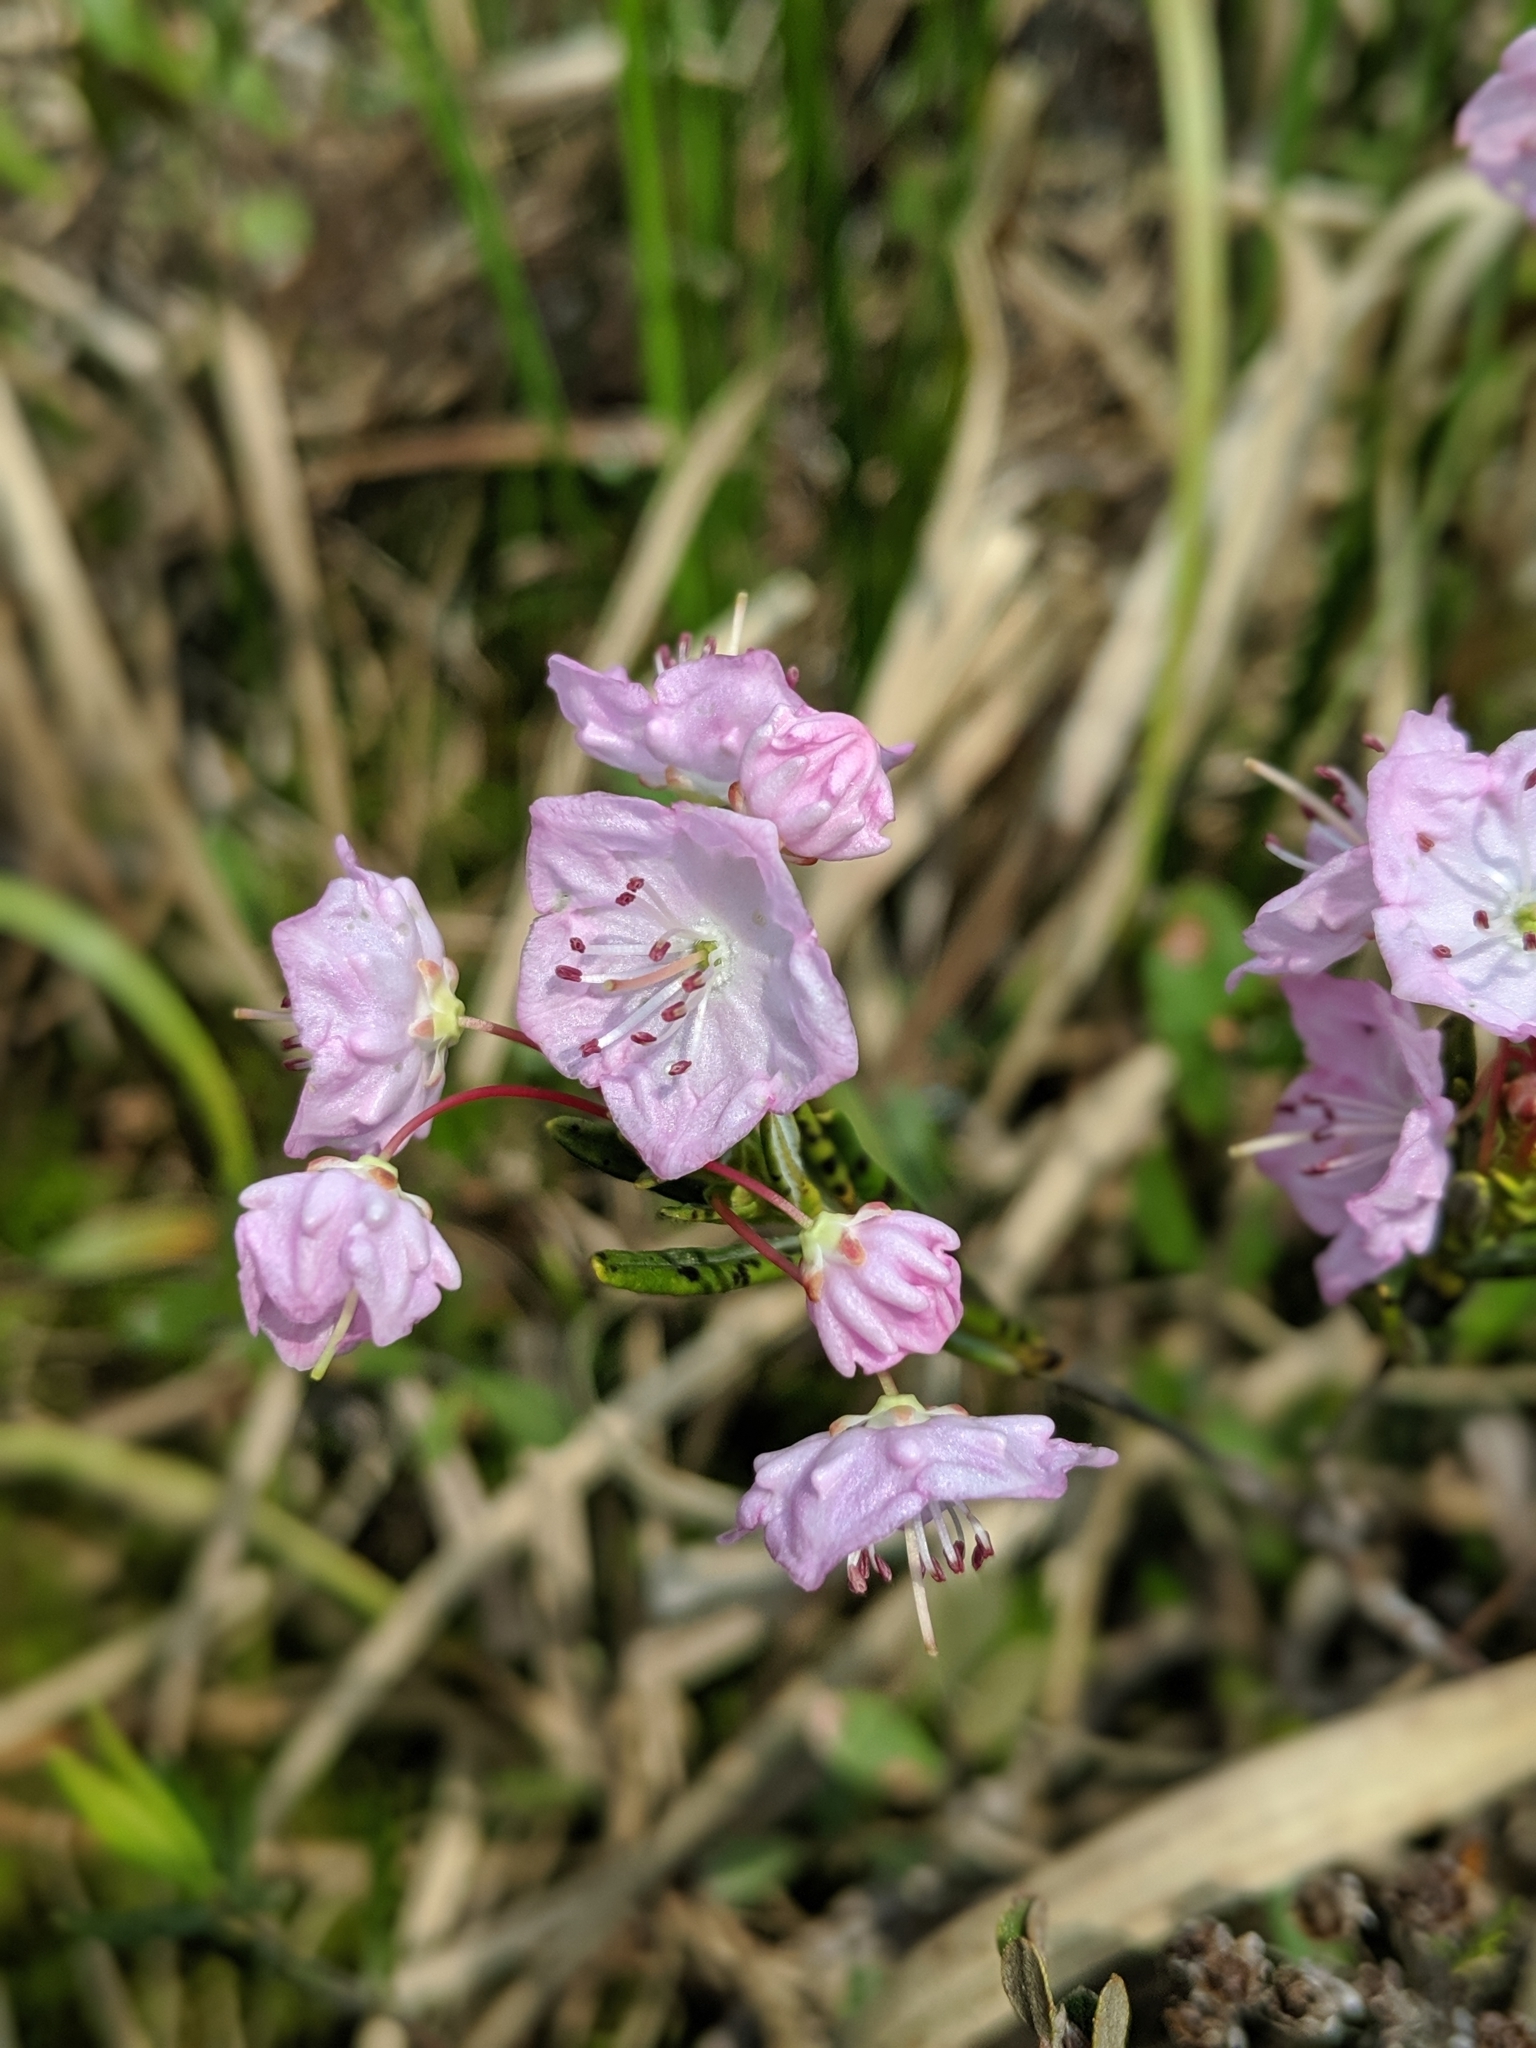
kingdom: Plantae
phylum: Tracheophyta
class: Magnoliopsida
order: Ericales
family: Ericaceae
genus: Kalmia
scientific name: Kalmia polifolia
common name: Bog-laurel
